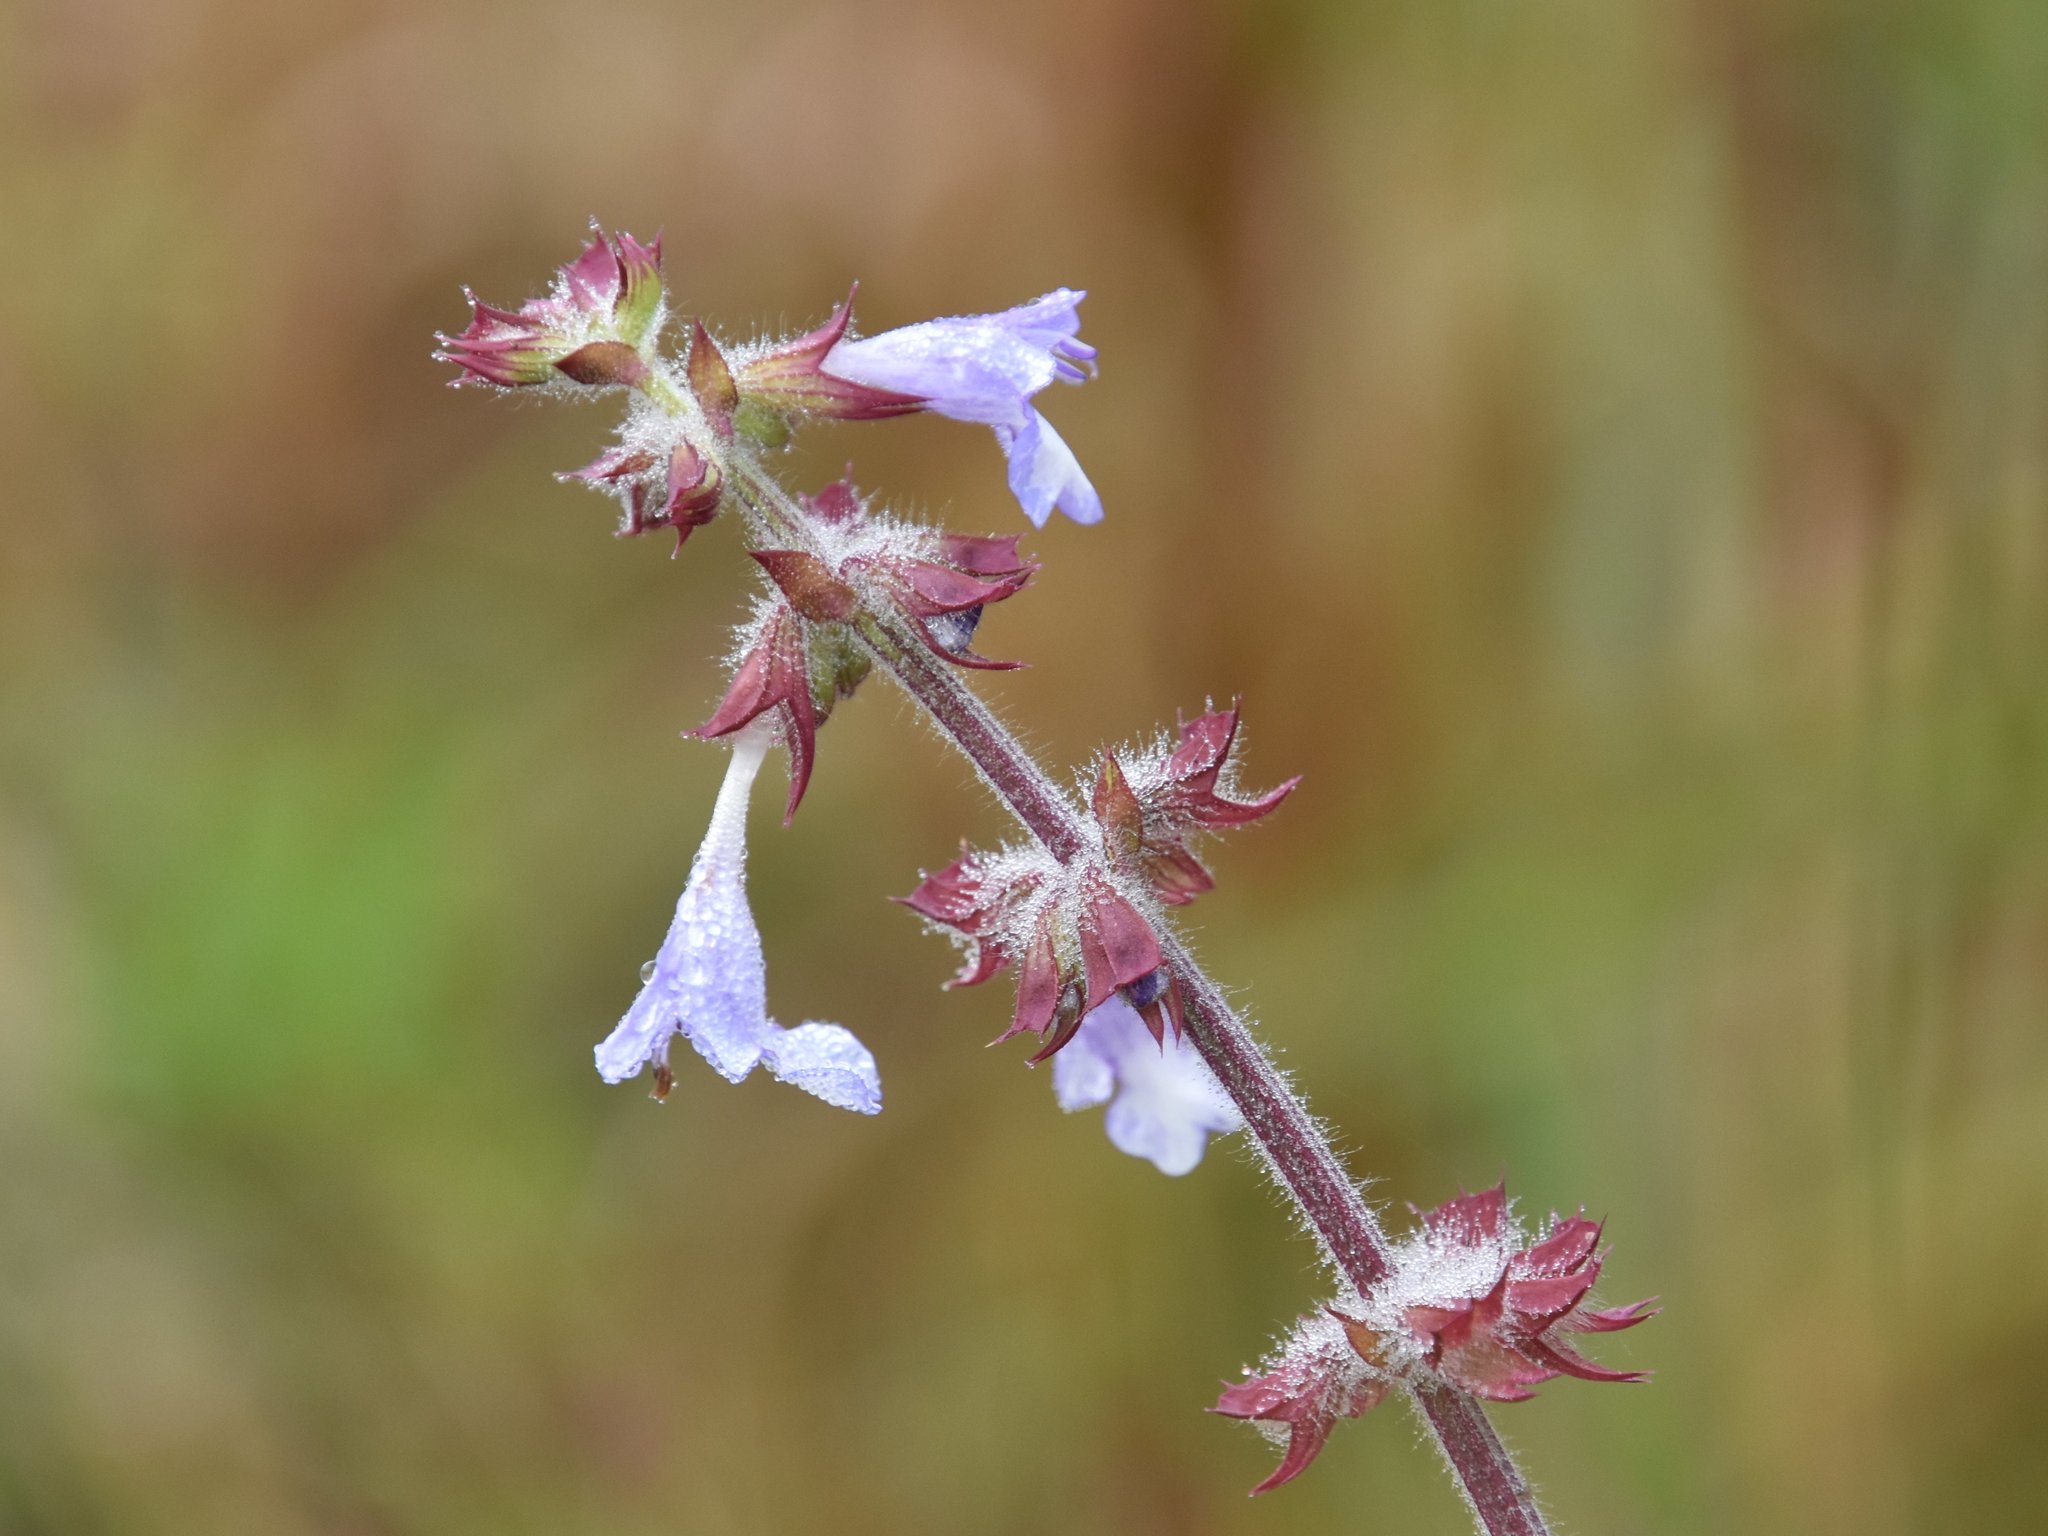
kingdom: Plantae
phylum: Tracheophyta
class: Magnoliopsida
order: Lamiales
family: Lamiaceae
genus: Salvia
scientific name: Salvia lyrata
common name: Cancerweed
